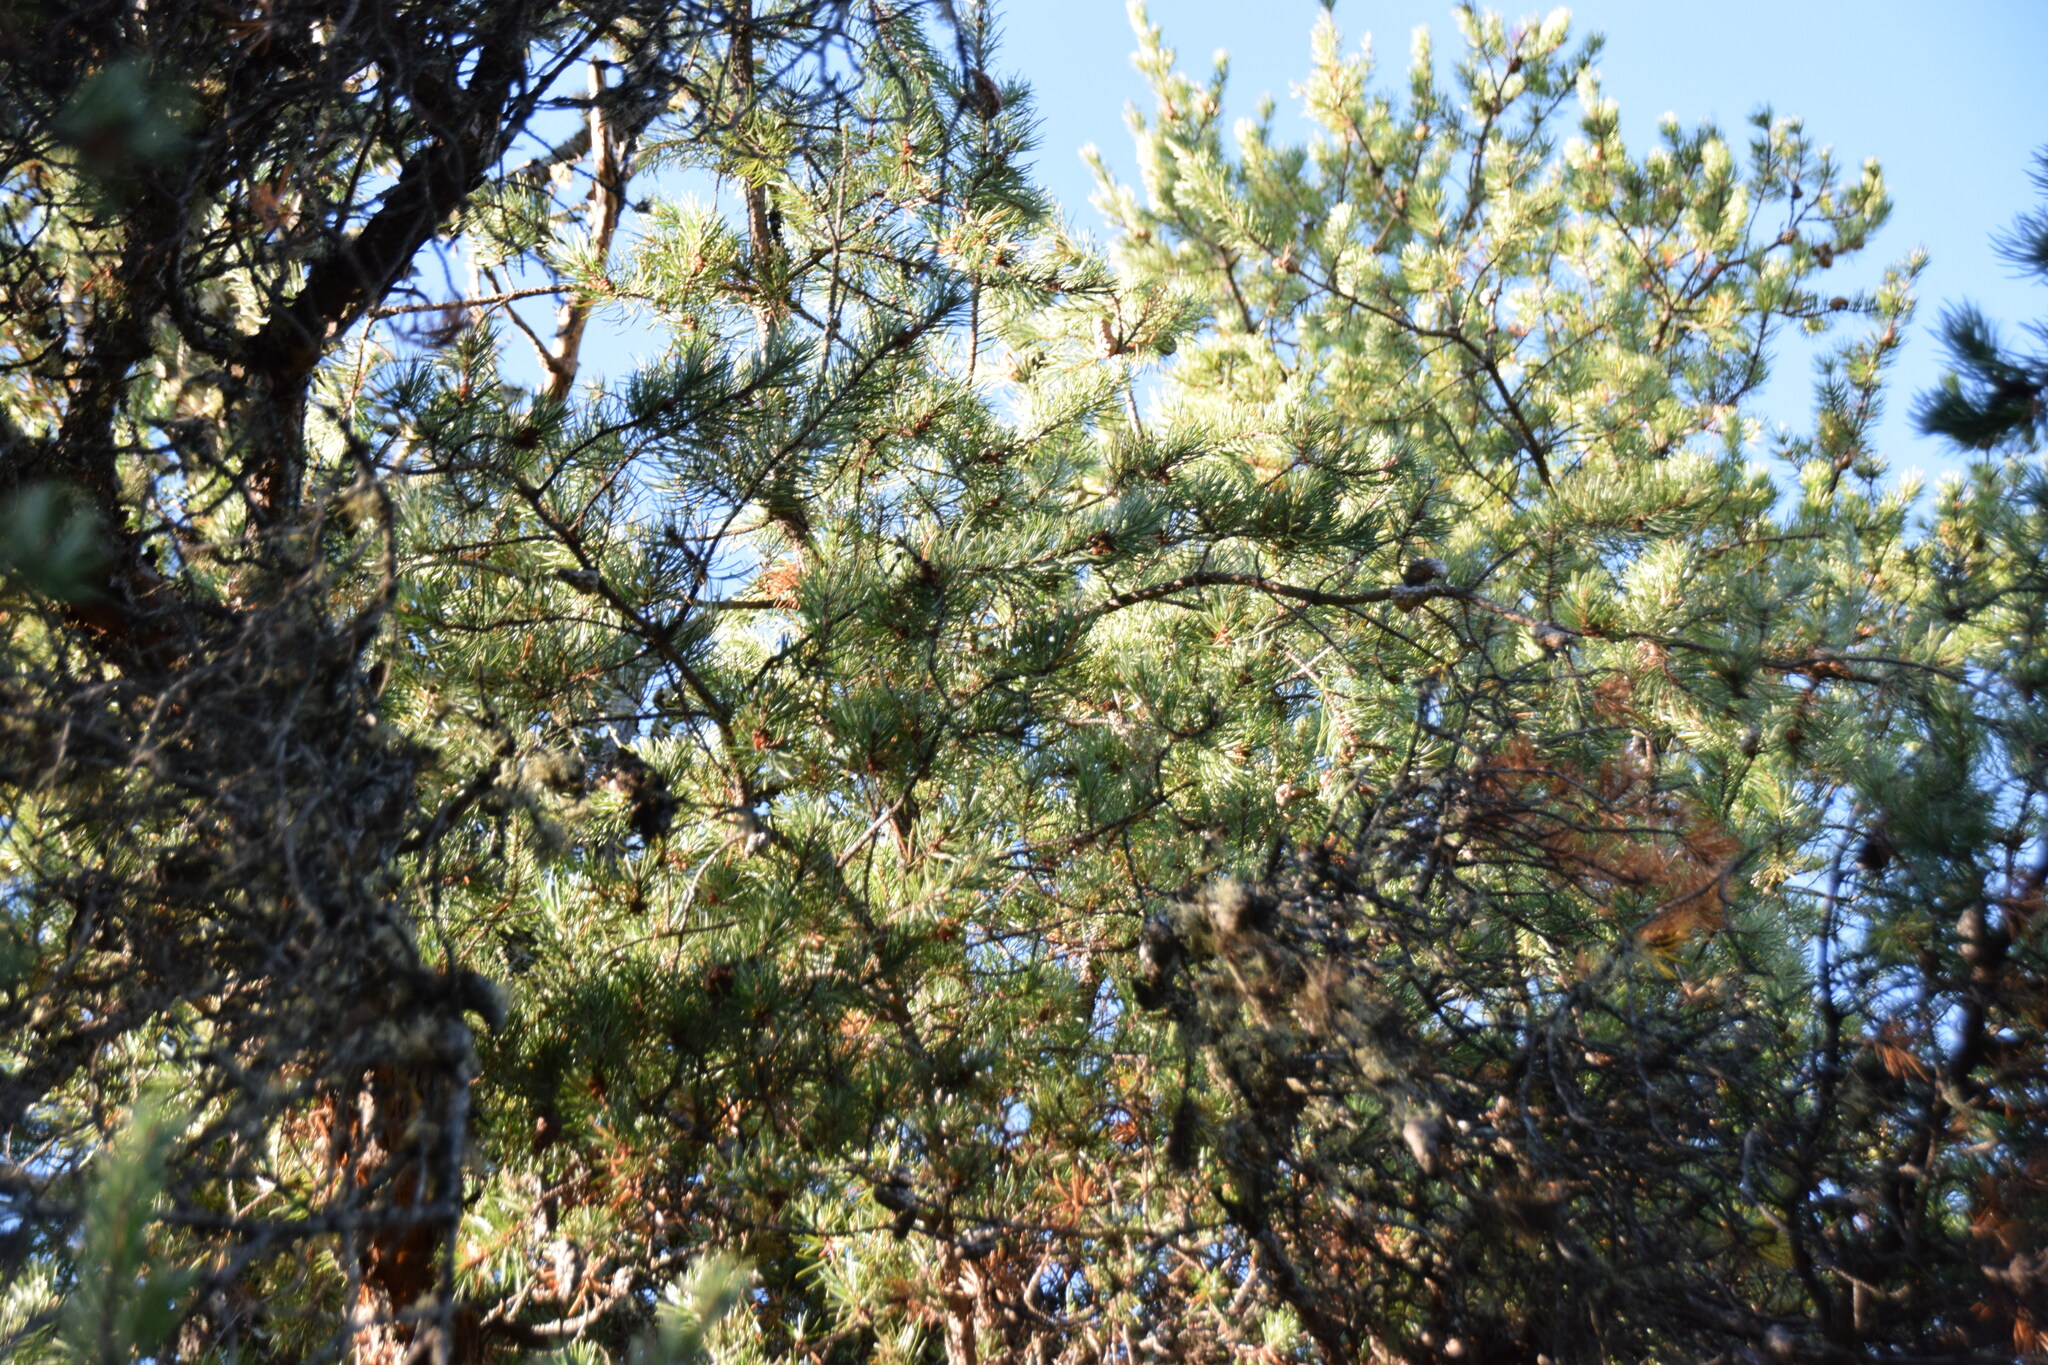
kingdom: Plantae
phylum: Tracheophyta
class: Pinopsida
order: Pinales
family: Pinaceae
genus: Pinus
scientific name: Pinus banksiana
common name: Jack pine
